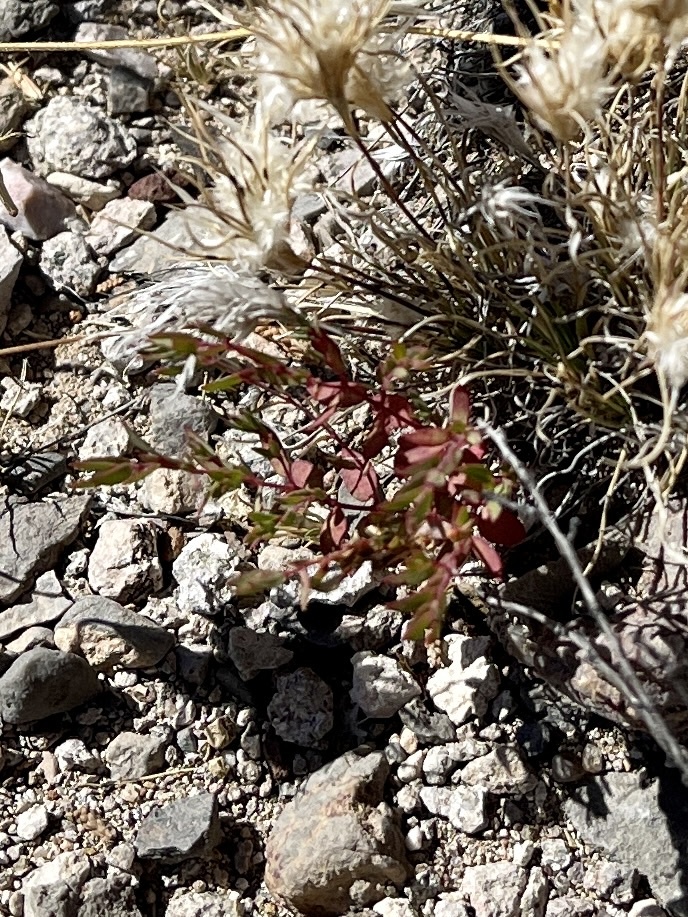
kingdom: Plantae
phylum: Tracheophyta
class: Magnoliopsida
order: Malpighiales
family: Euphorbiaceae
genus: Euphorbia
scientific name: Euphorbia chaetocalyx
